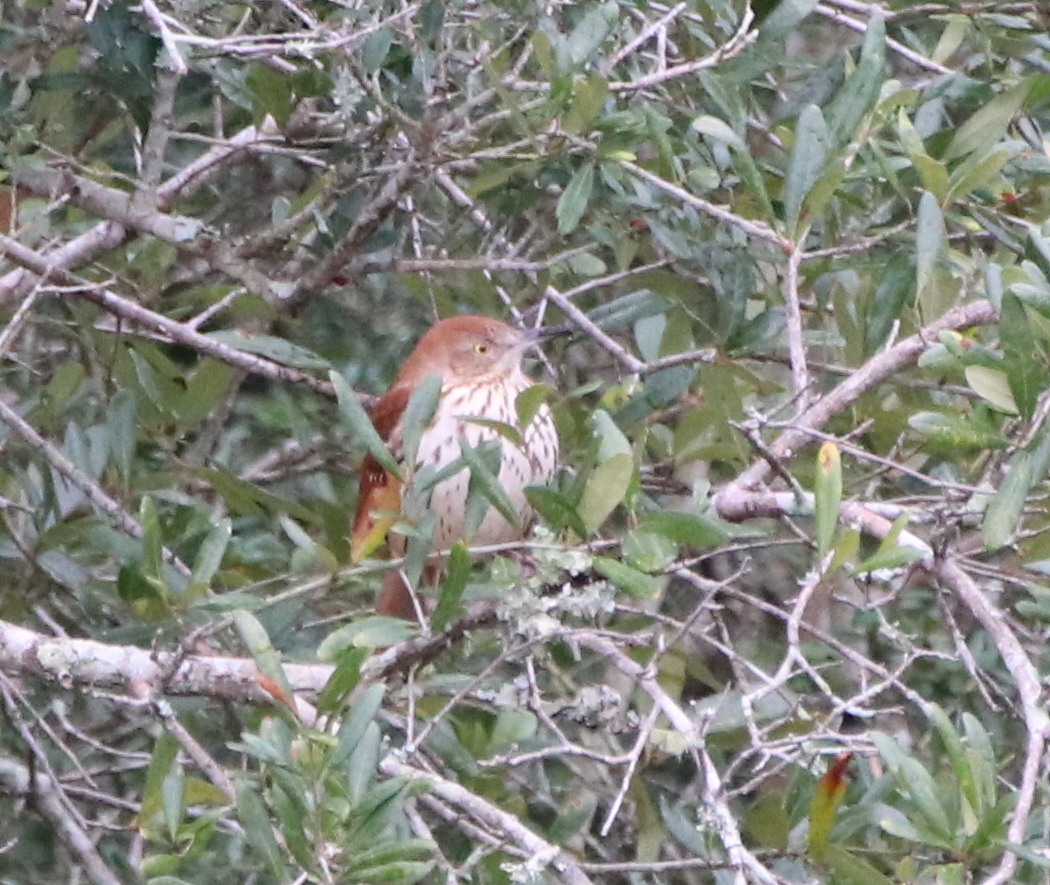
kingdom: Animalia
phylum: Chordata
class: Aves
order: Passeriformes
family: Mimidae
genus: Toxostoma
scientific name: Toxostoma rufum
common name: Brown thrasher
